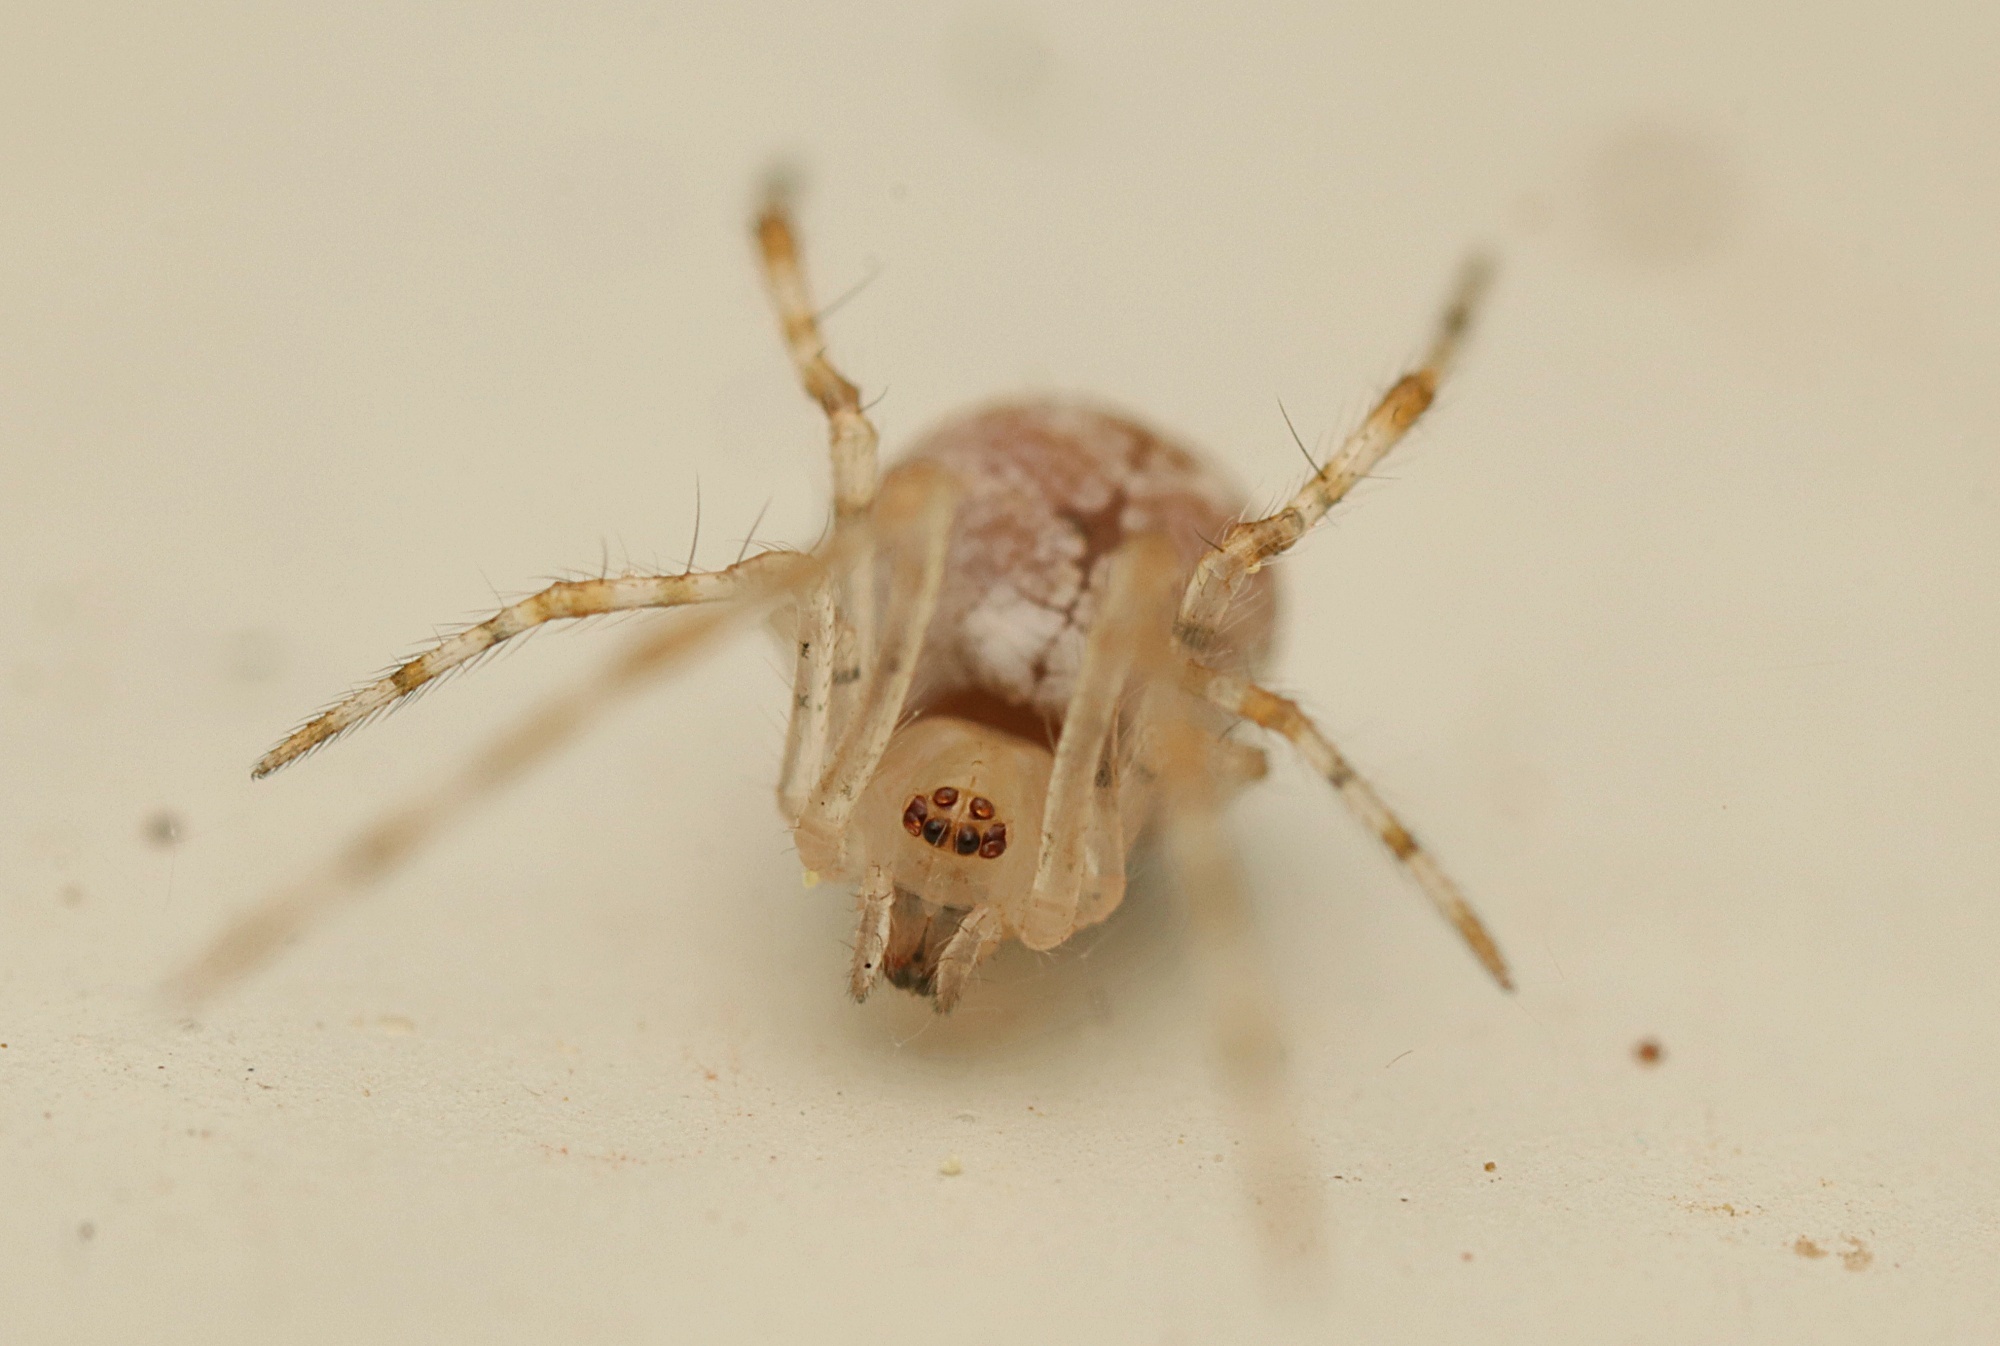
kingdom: Animalia
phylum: Arthropoda
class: Arachnida
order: Araneae
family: Theridiidae
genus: Cryptachaea
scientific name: Cryptachaea gigantipes
